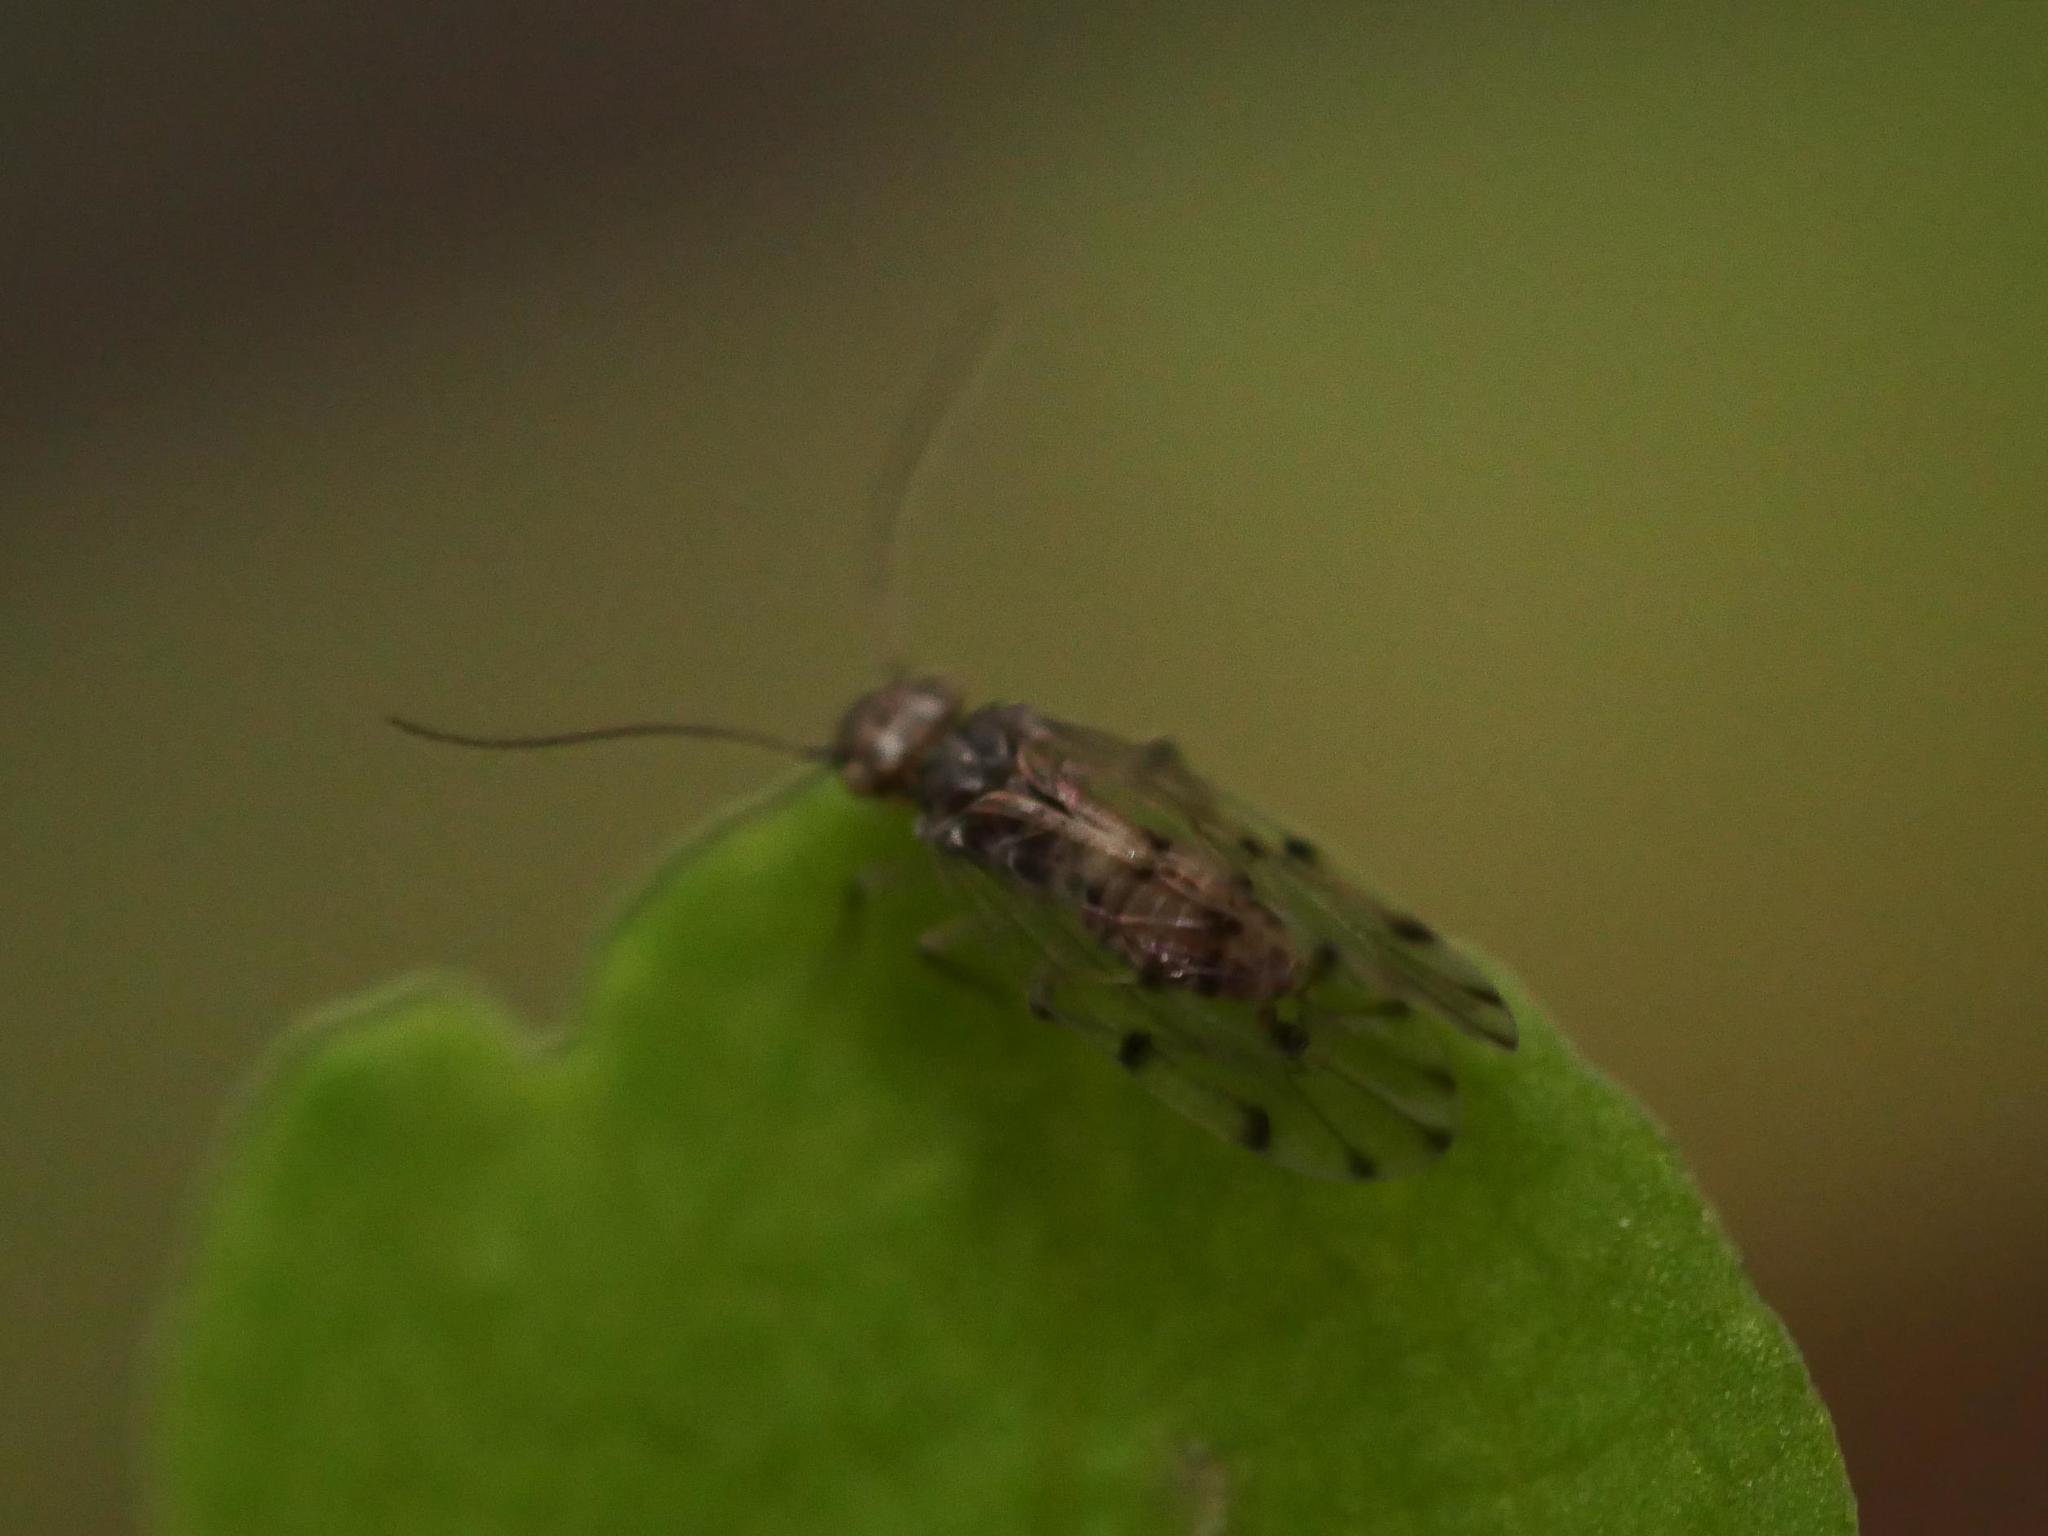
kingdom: Animalia
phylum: Arthropoda
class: Insecta
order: Psocodea
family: Ectopsocidae
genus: Ectopsocus
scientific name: Ectopsocus petersi
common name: Medium-sized bark louse
